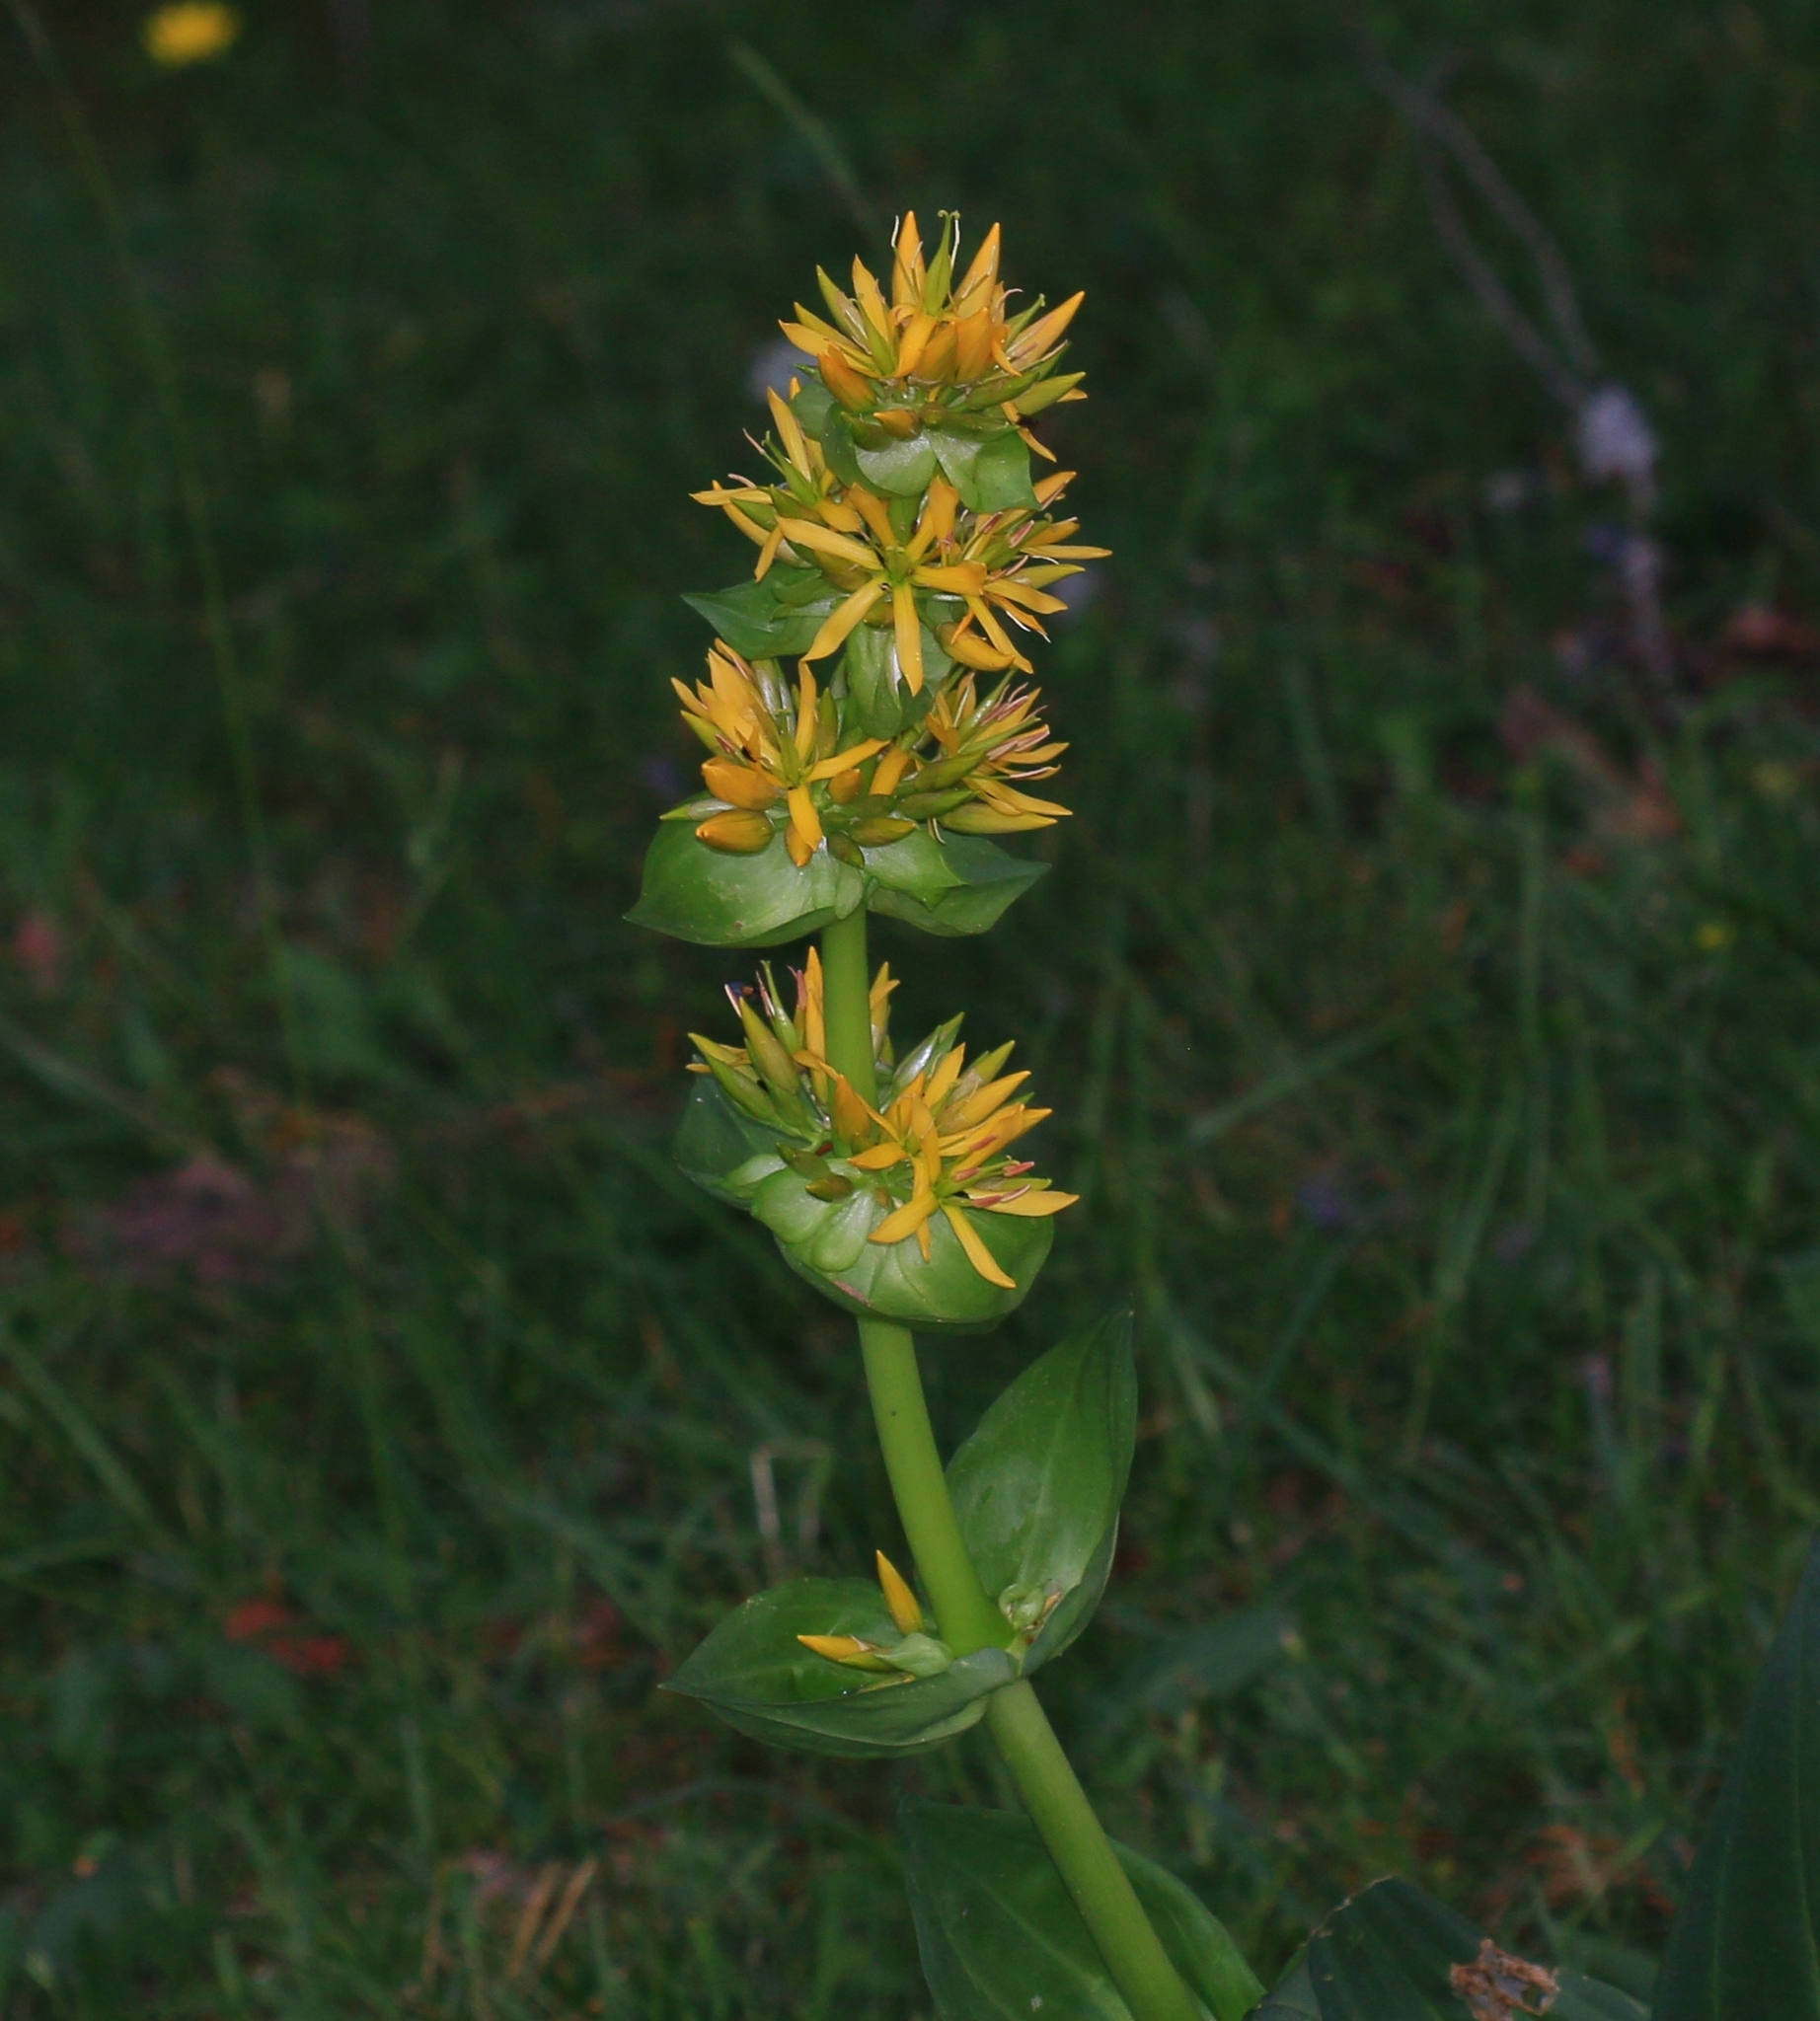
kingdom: Plantae
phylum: Tracheophyta
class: Magnoliopsida
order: Gentianales
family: Gentianaceae
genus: Gentiana
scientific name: Gentiana lutea
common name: Great yellow gentian
